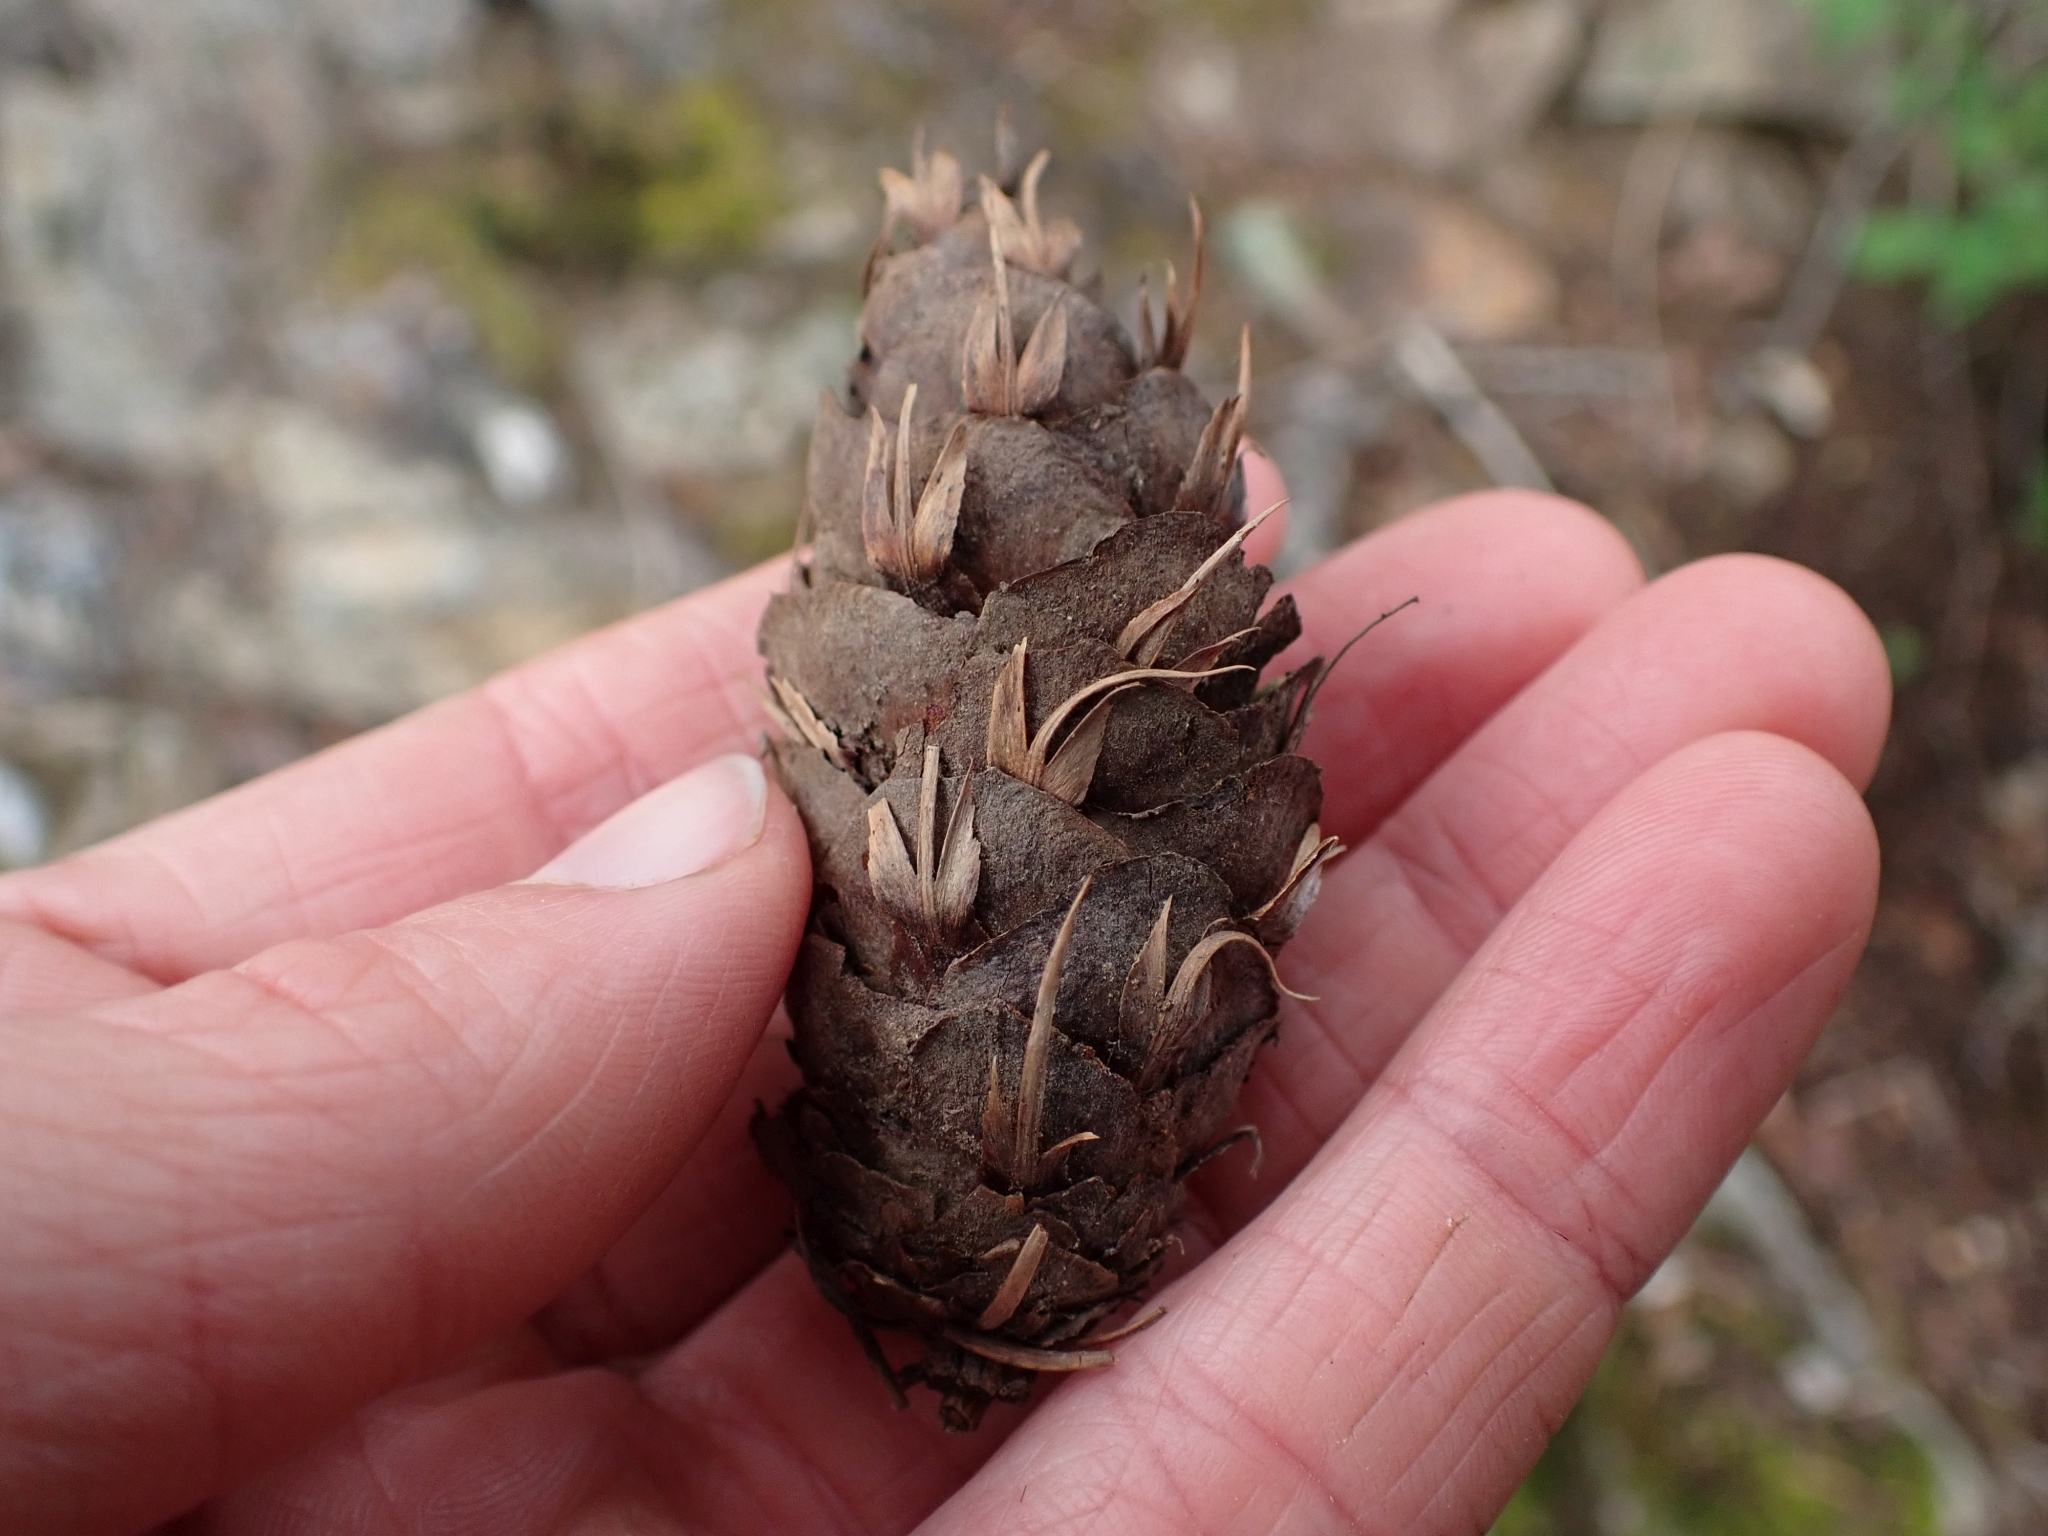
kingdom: Plantae
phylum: Tracheophyta
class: Pinopsida
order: Pinales
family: Pinaceae
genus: Pseudotsuga
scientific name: Pseudotsuga menziesii
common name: Douglas fir
